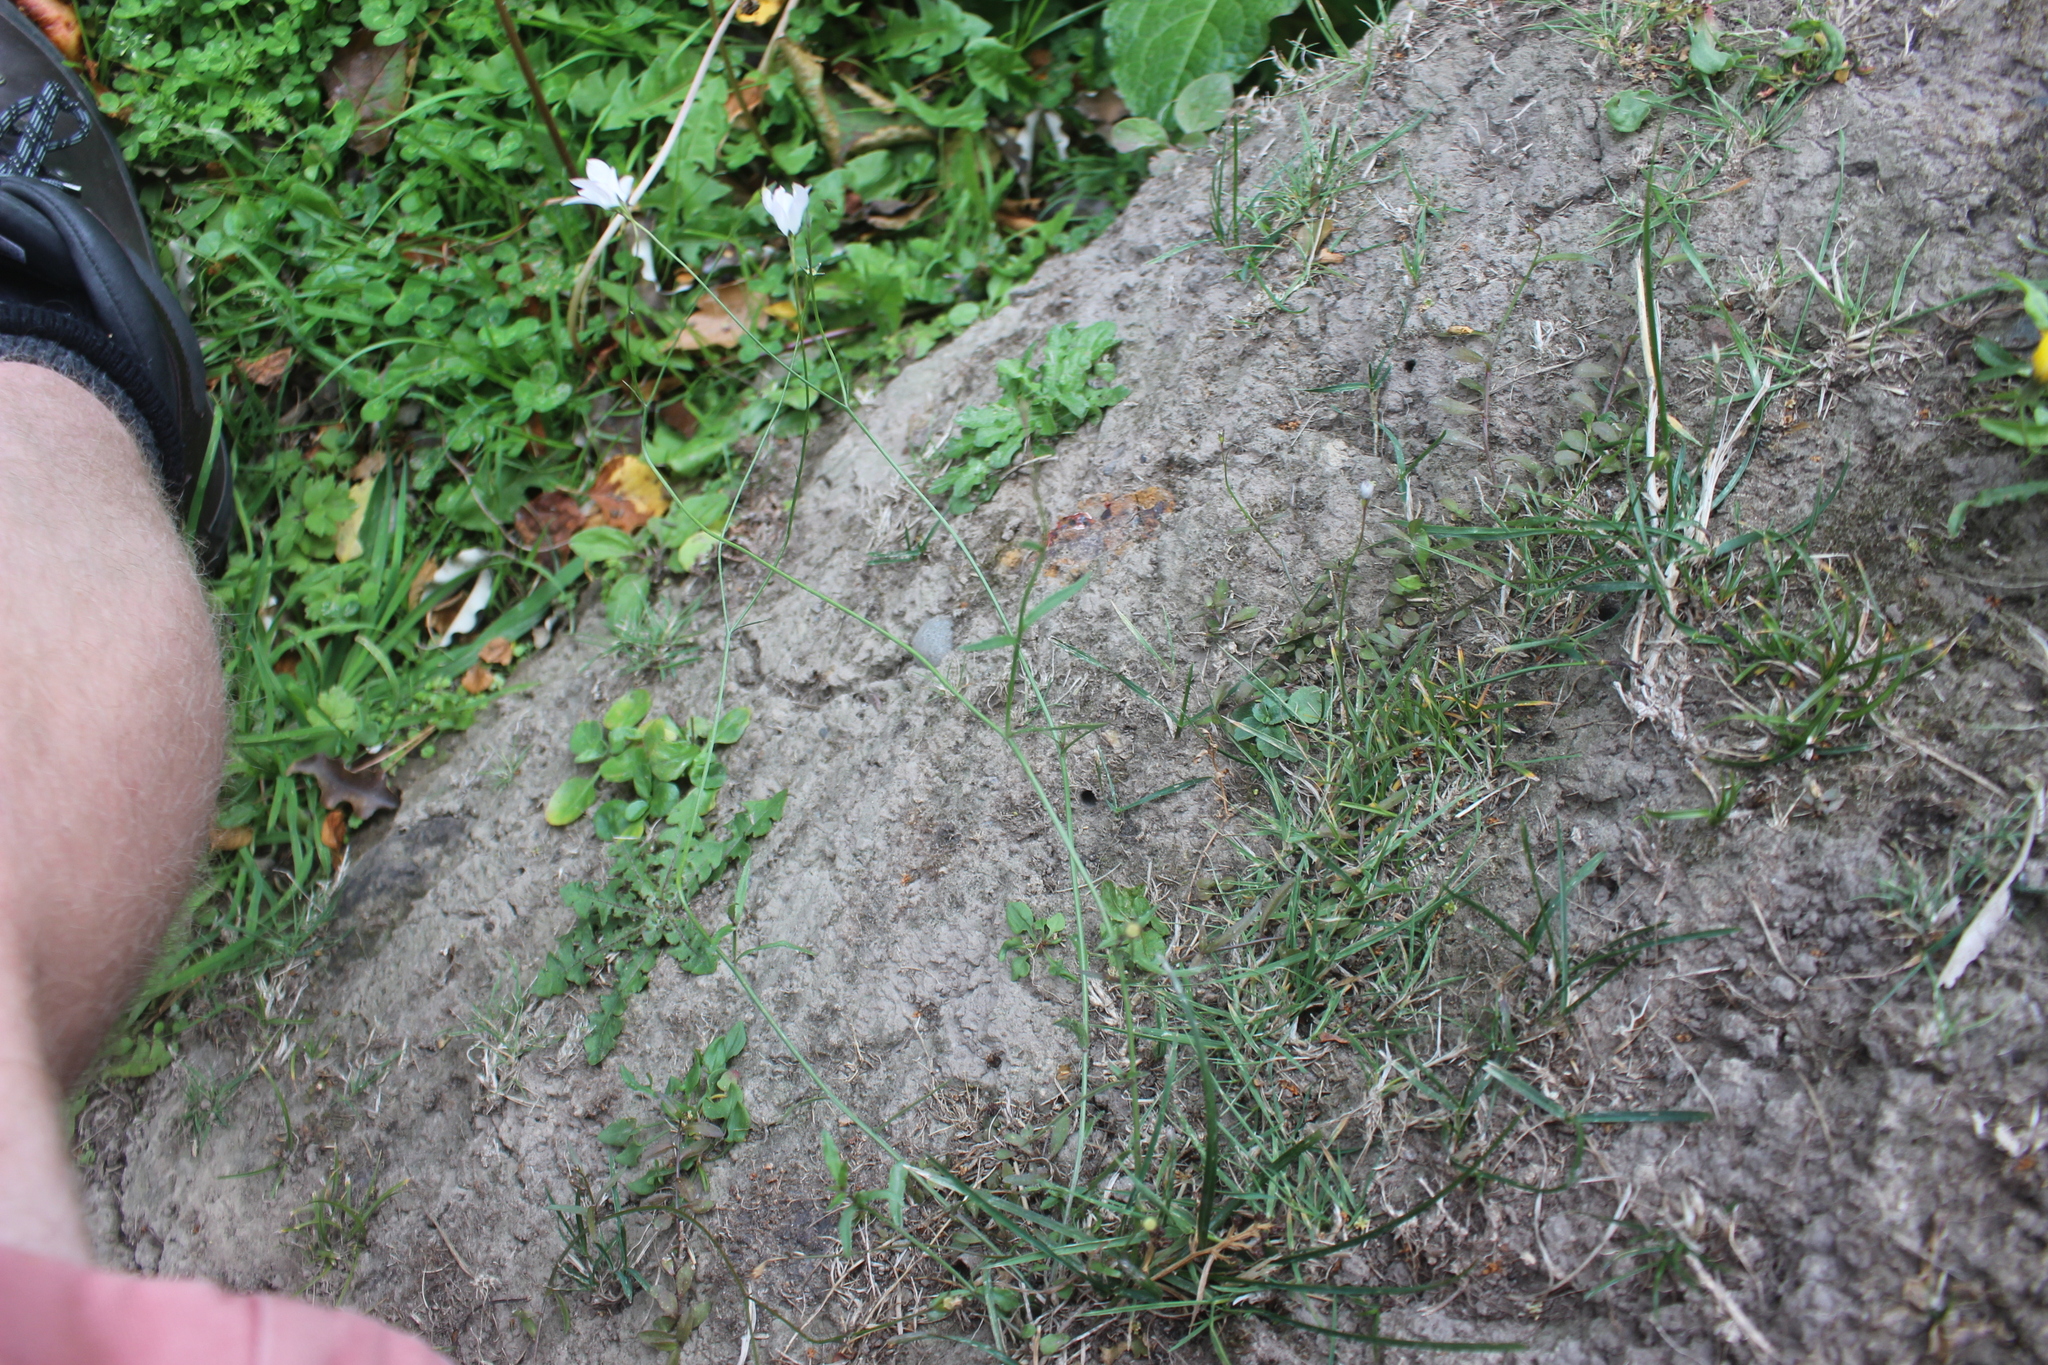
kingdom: Plantae
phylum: Tracheophyta
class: Magnoliopsida
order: Asterales
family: Campanulaceae
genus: Wahlenbergia
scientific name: Wahlenbergia violacea
